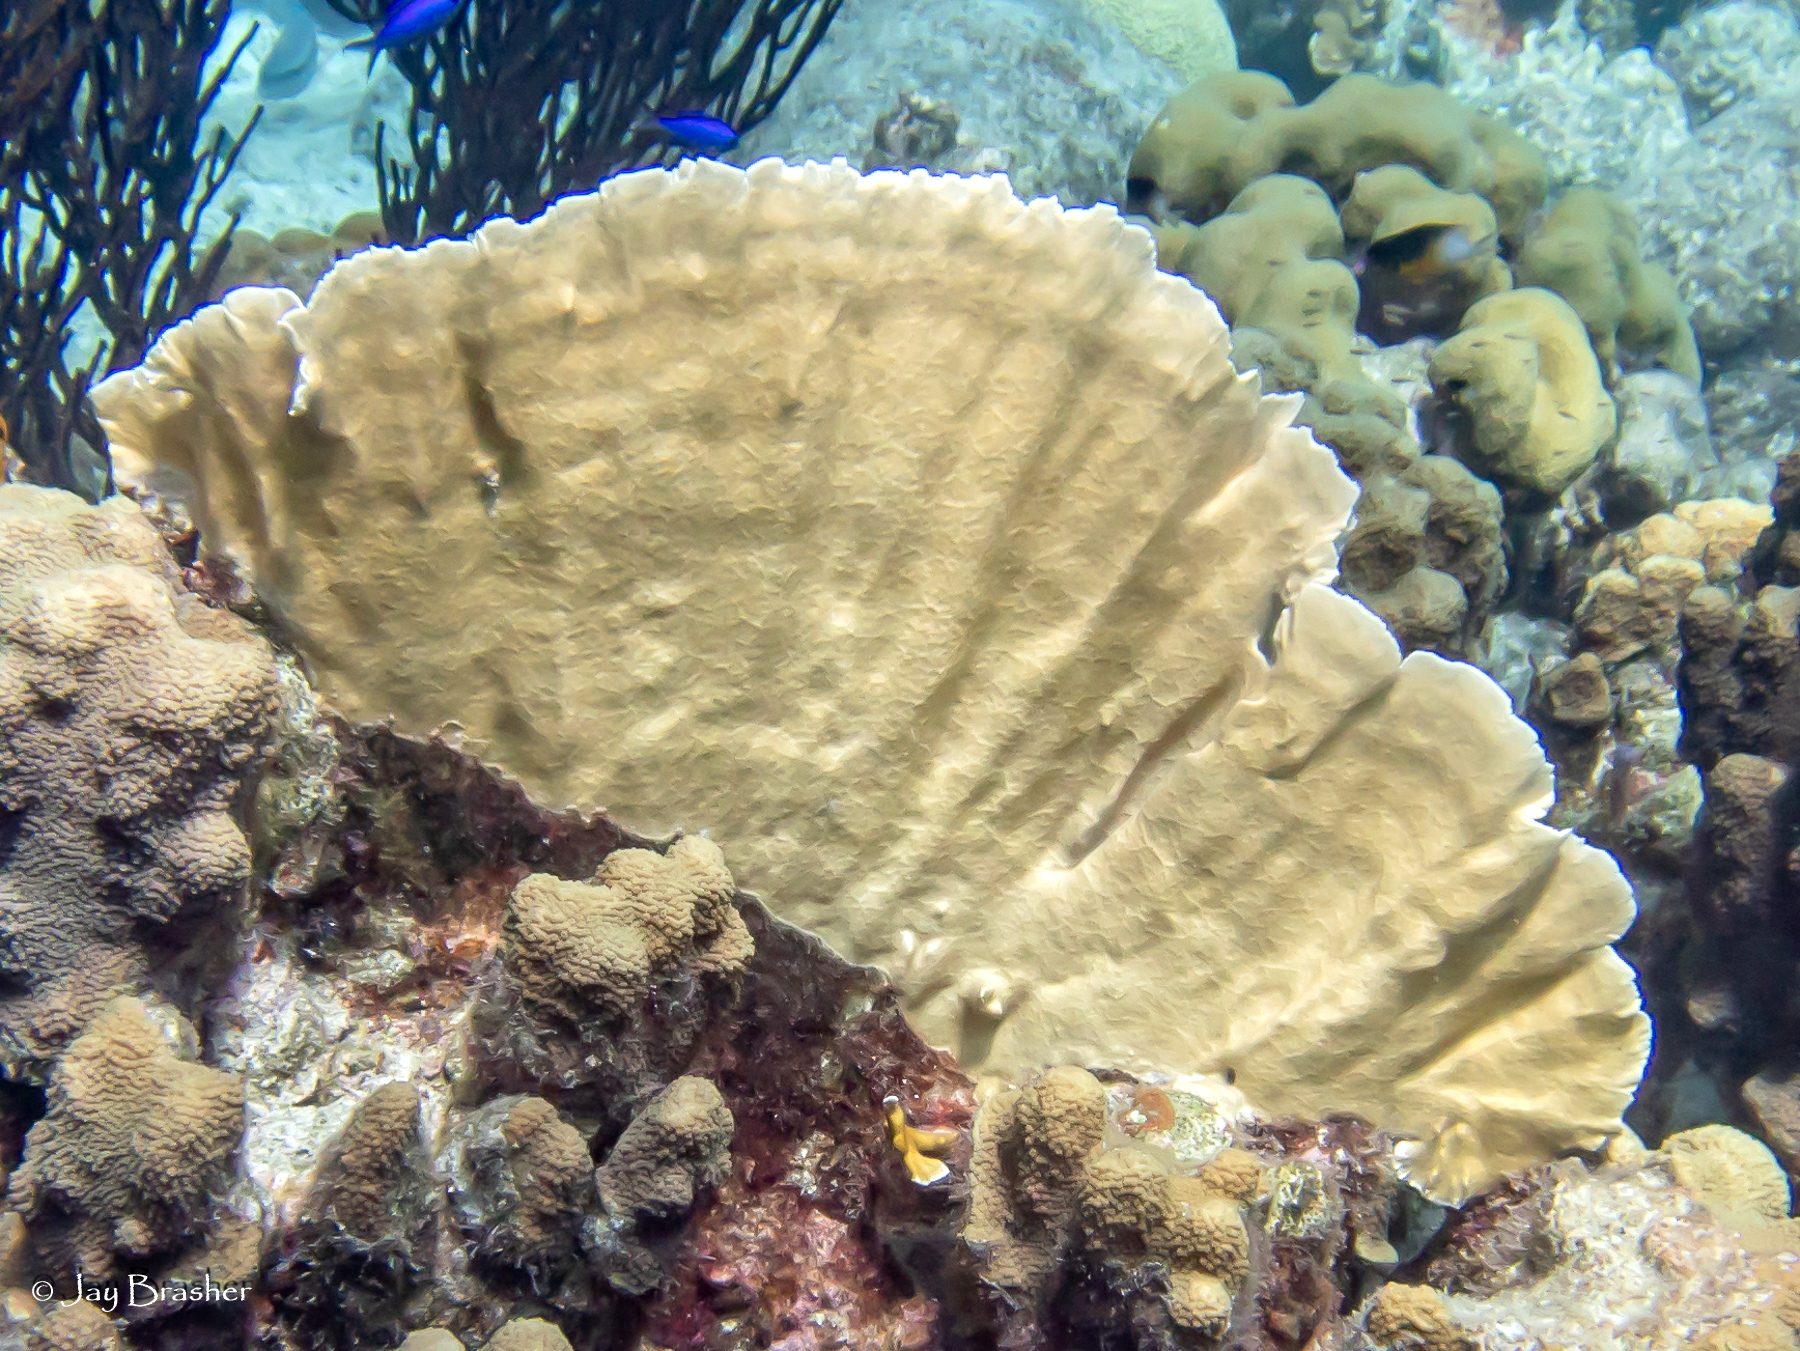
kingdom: Animalia
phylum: Cnidaria
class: Hydrozoa
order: Anthoathecata
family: Milleporidae
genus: Millepora
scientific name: Millepora complanata
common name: Bladed fire coral
